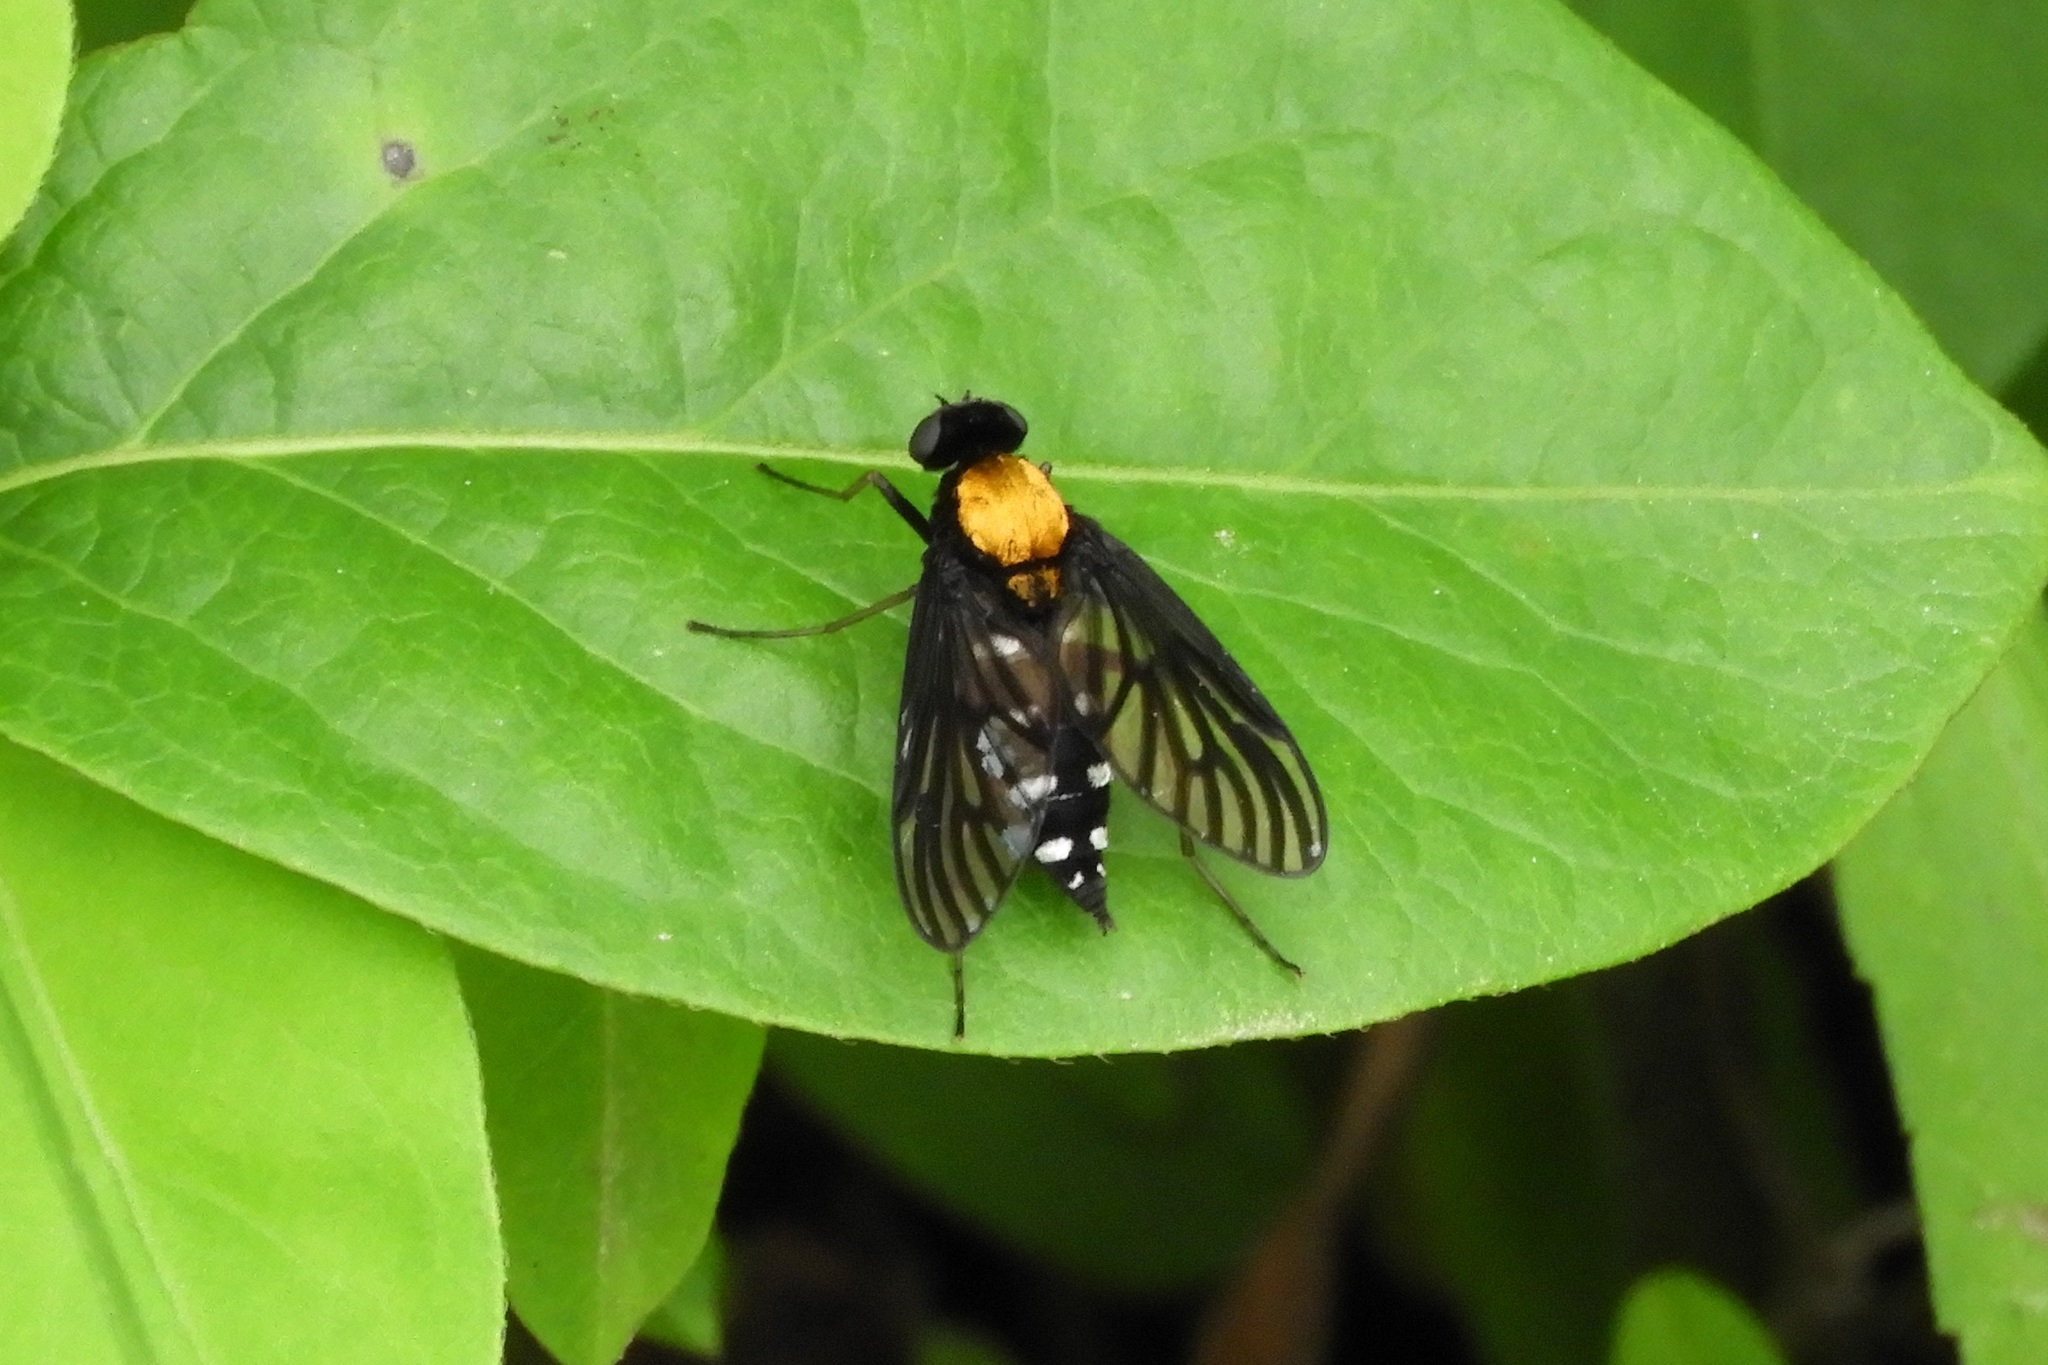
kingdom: Animalia
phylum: Arthropoda
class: Insecta
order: Diptera
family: Rhagionidae
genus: Chrysopilus
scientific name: Chrysopilus thoracicus
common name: Golden-backed snipe fly
